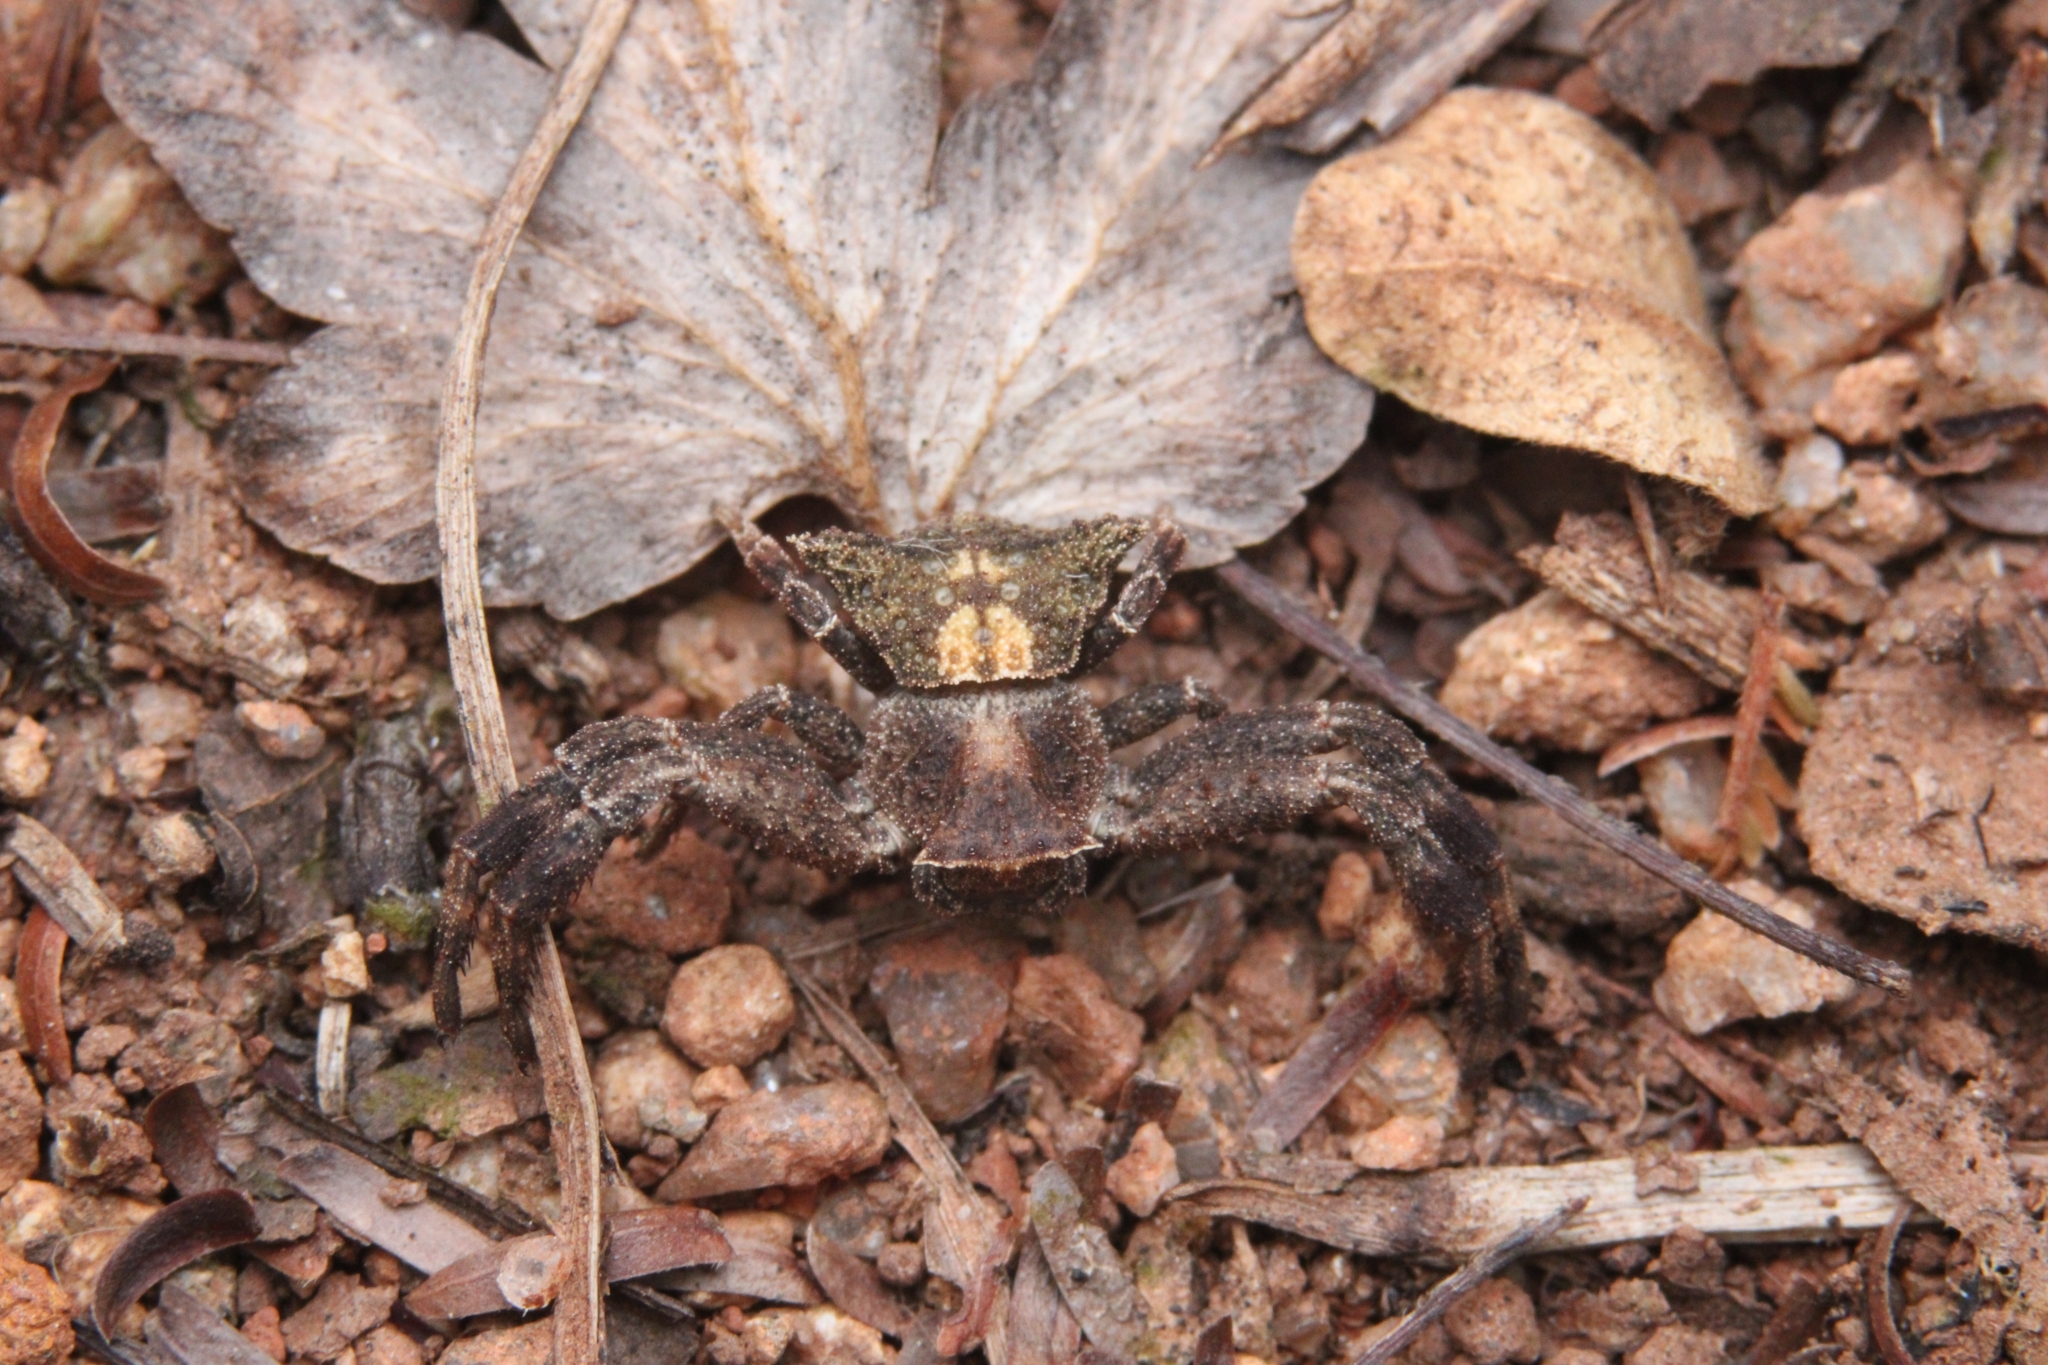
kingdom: Animalia
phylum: Arthropoda
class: Arachnida
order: Araneae
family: Thomisidae
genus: Thomisus
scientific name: Thomisus scrupeus
